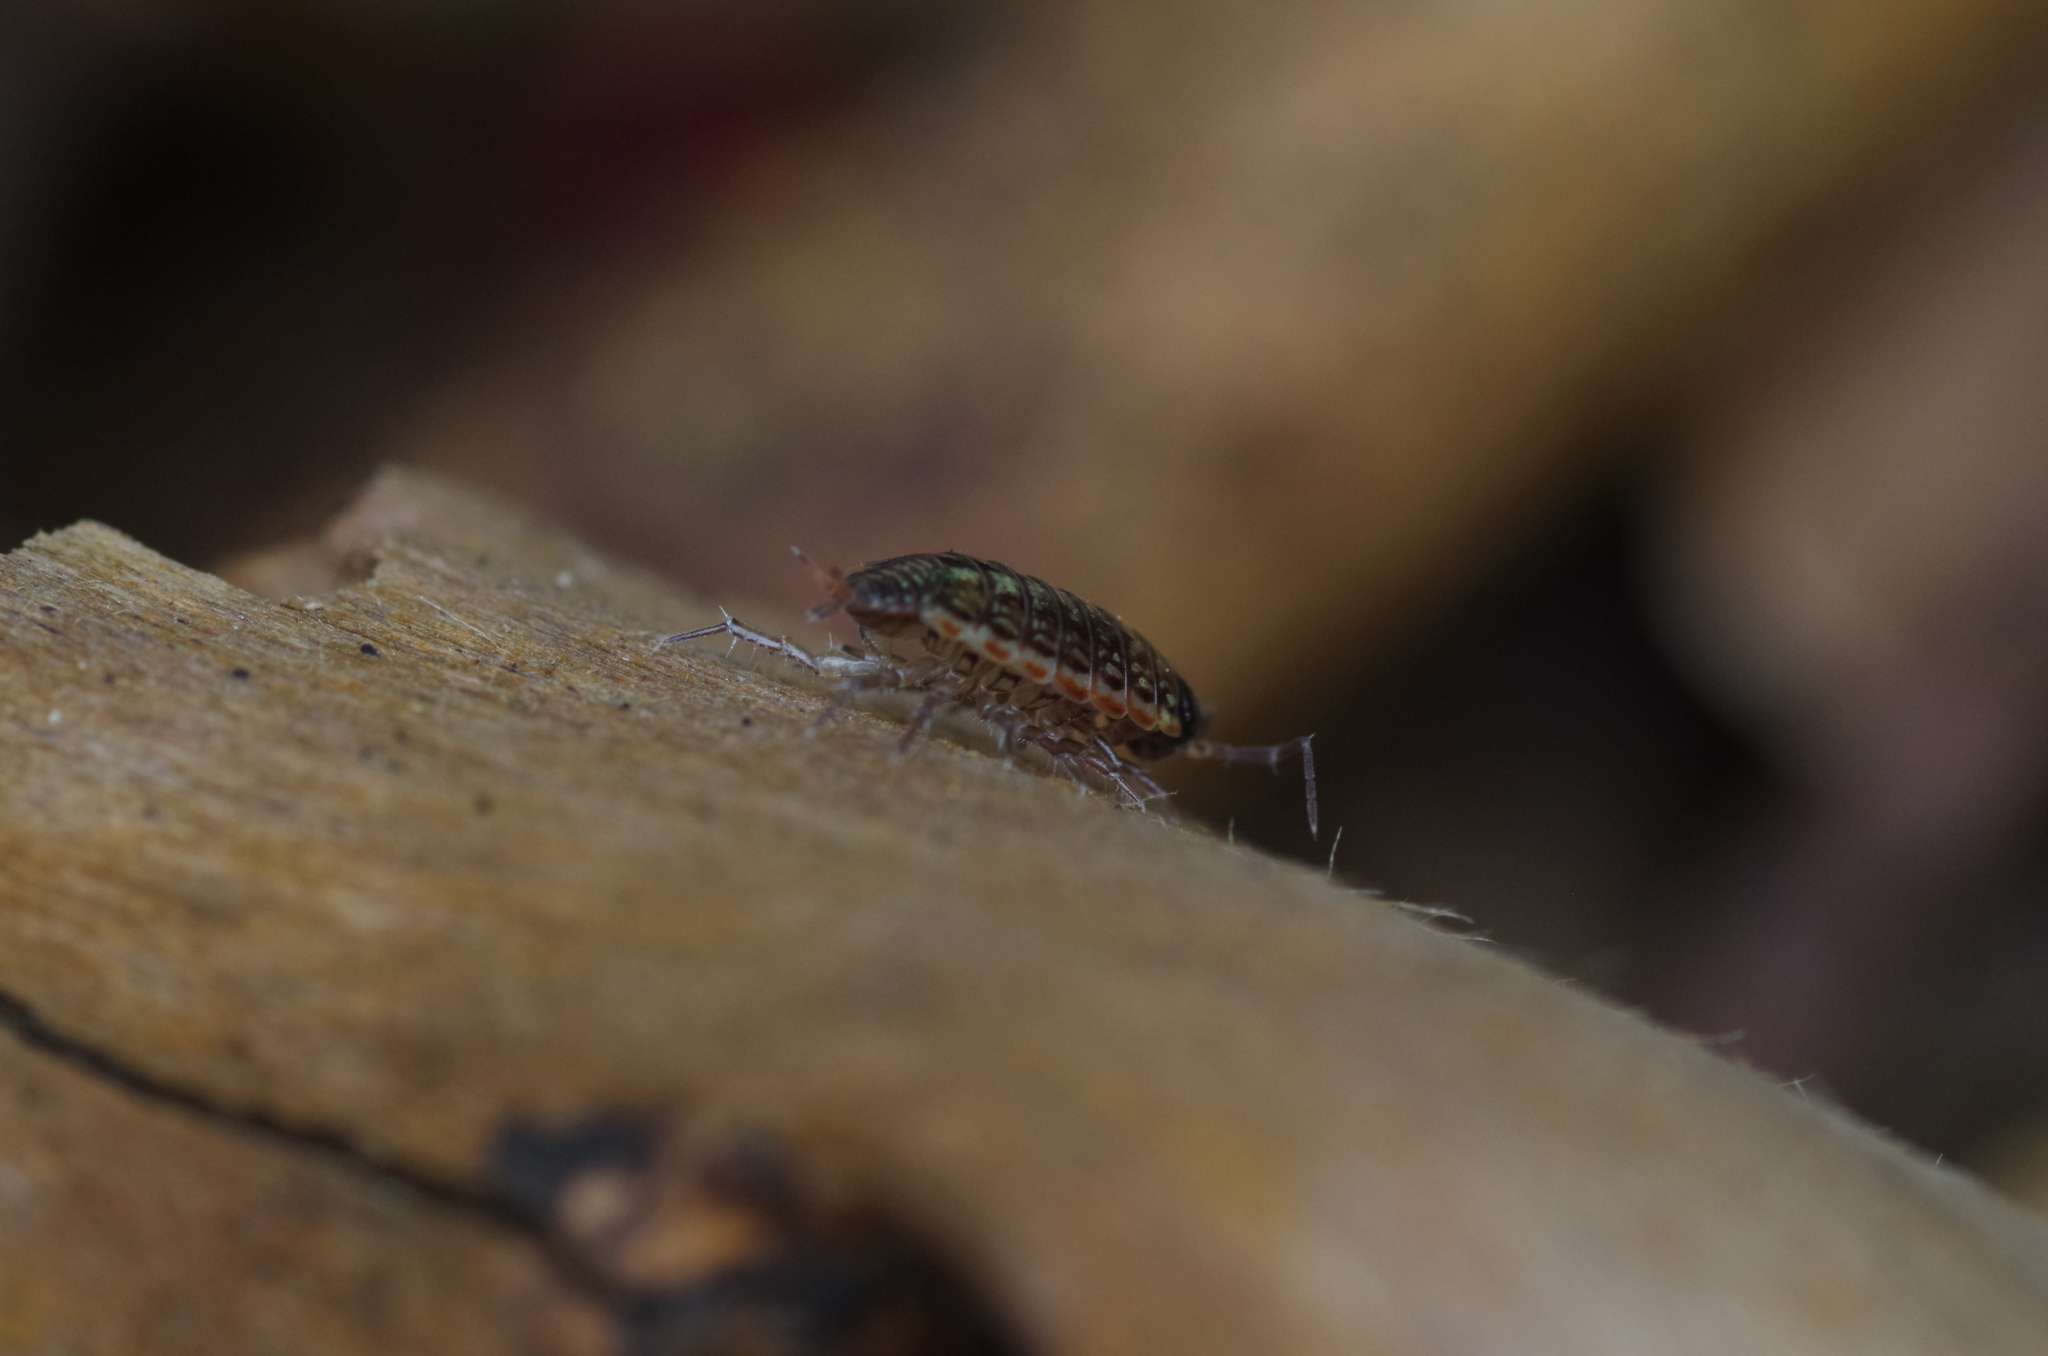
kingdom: Animalia
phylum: Arthropoda
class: Malacostraca
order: Isopoda
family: Philosciidae
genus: Philoscia
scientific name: Philoscia muscorum
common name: Common striped woodlouse
